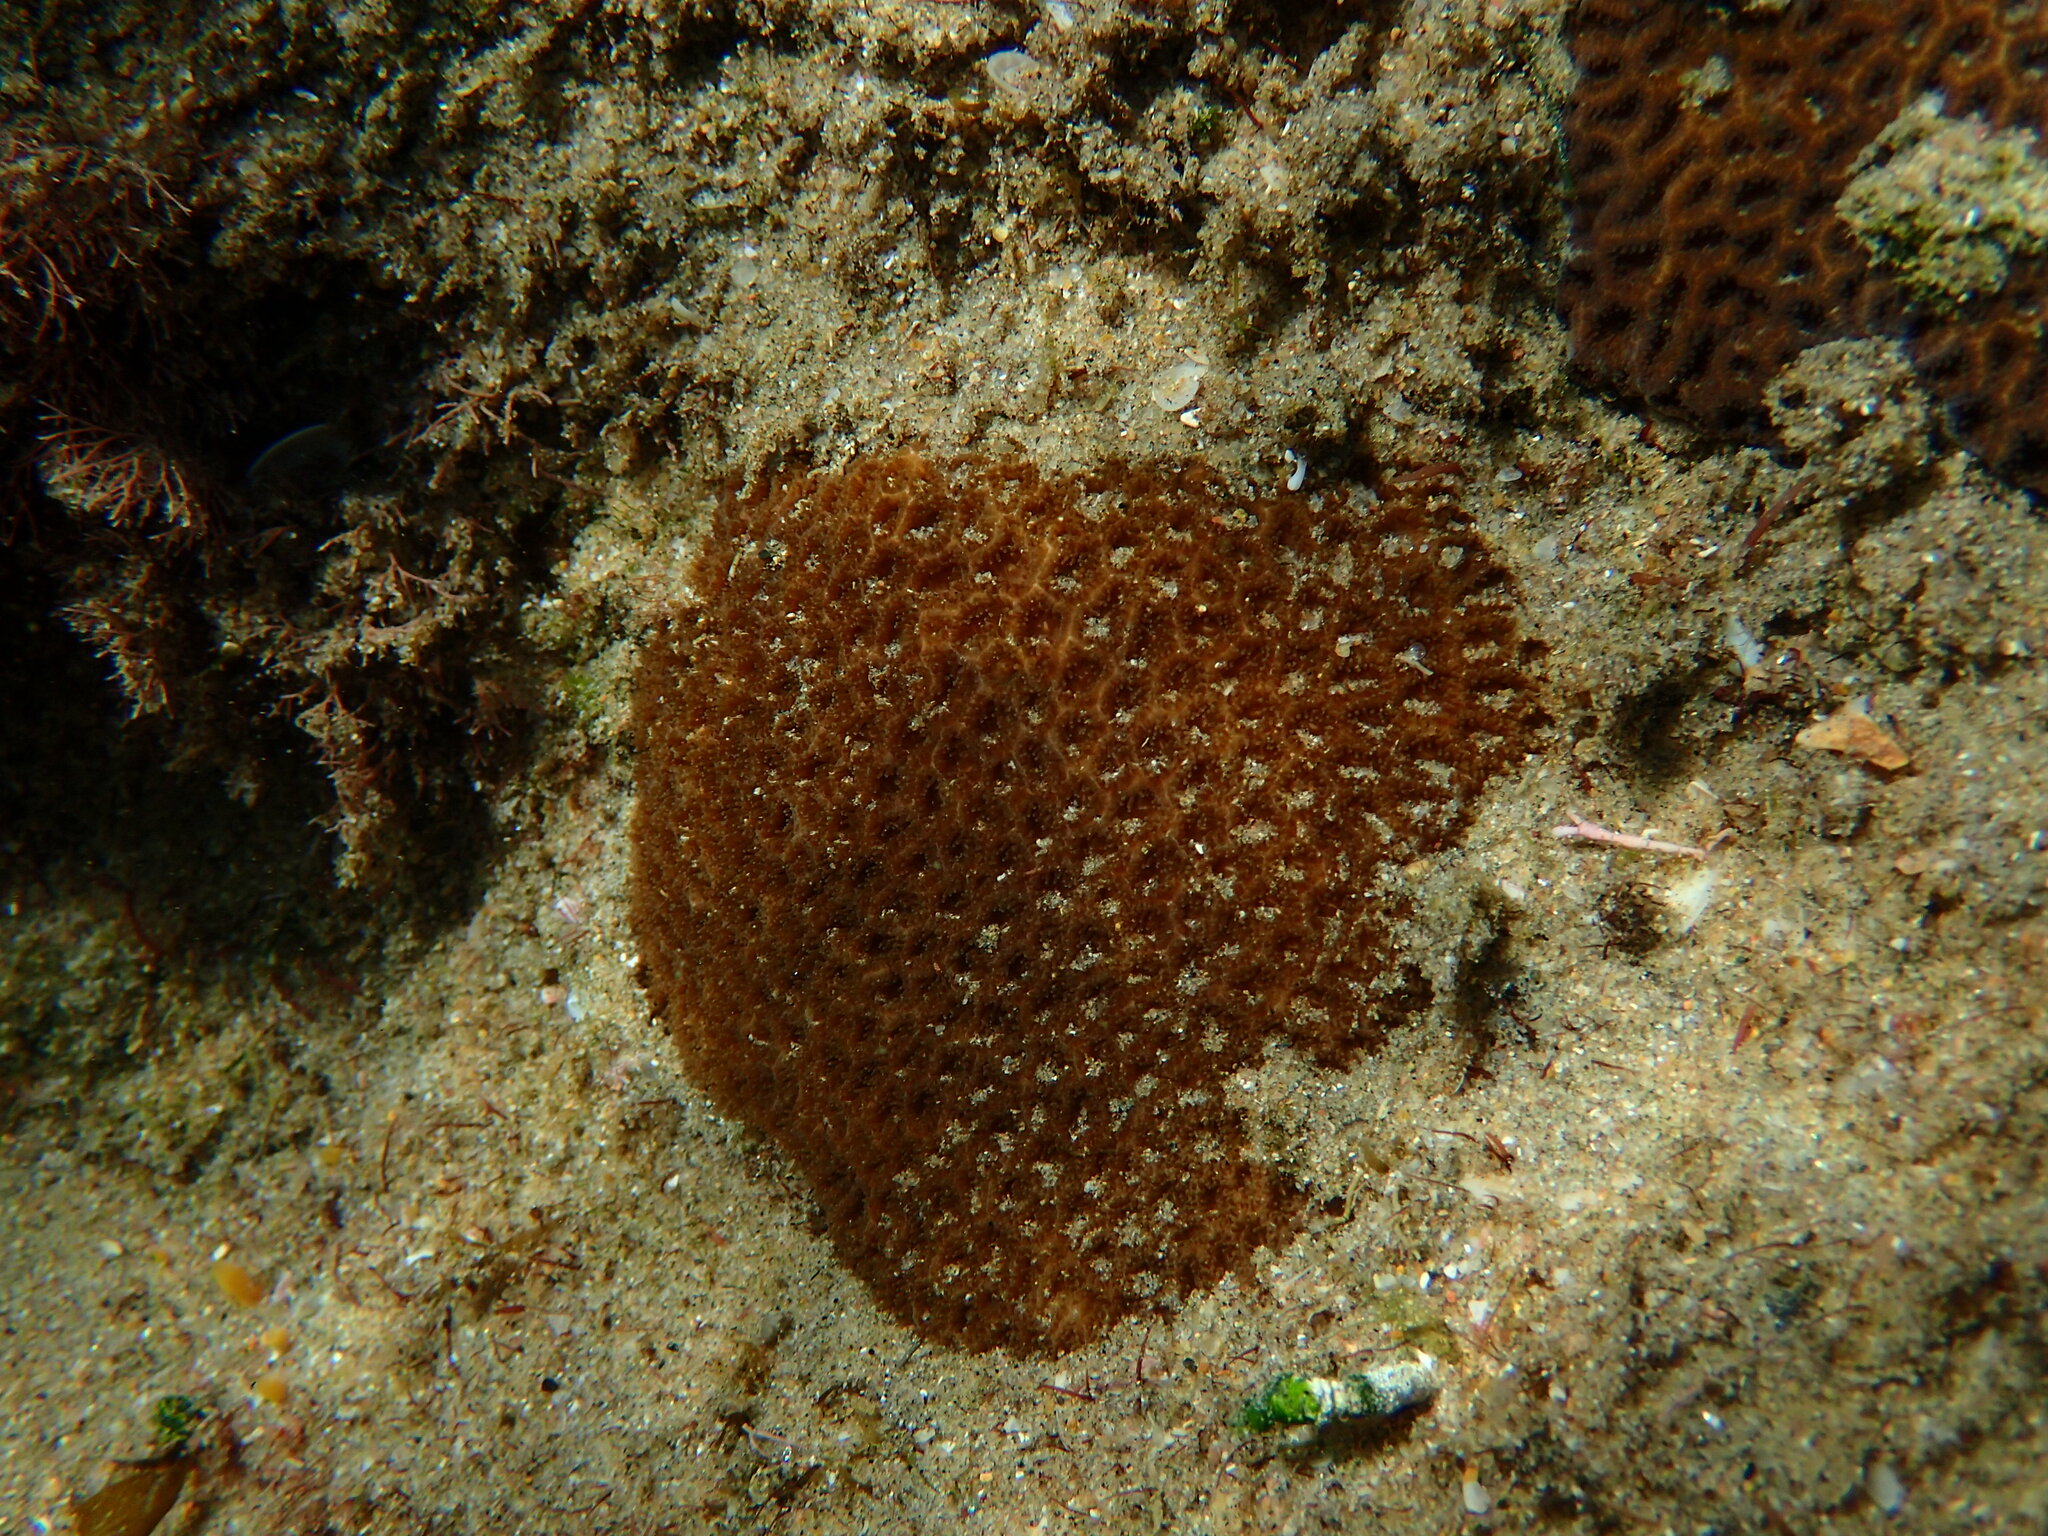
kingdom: Animalia
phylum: Cnidaria
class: Anthozoa
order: Scleractinia
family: Coscinaraeidae
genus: Anomastraea
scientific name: Anomastraea irregularis
